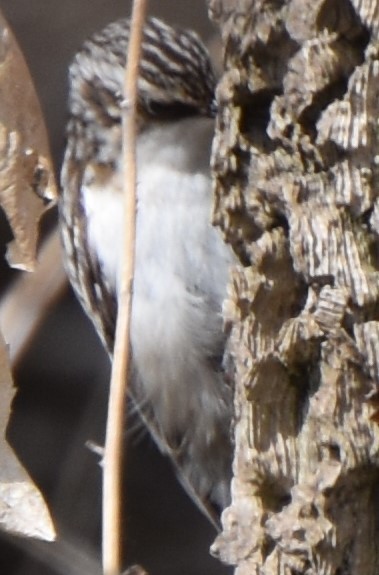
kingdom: Animalia
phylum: Chordata
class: Aves
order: Passeriformes
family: Certhiidae
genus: Certhia
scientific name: Certhia americana
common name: Brown creeper
